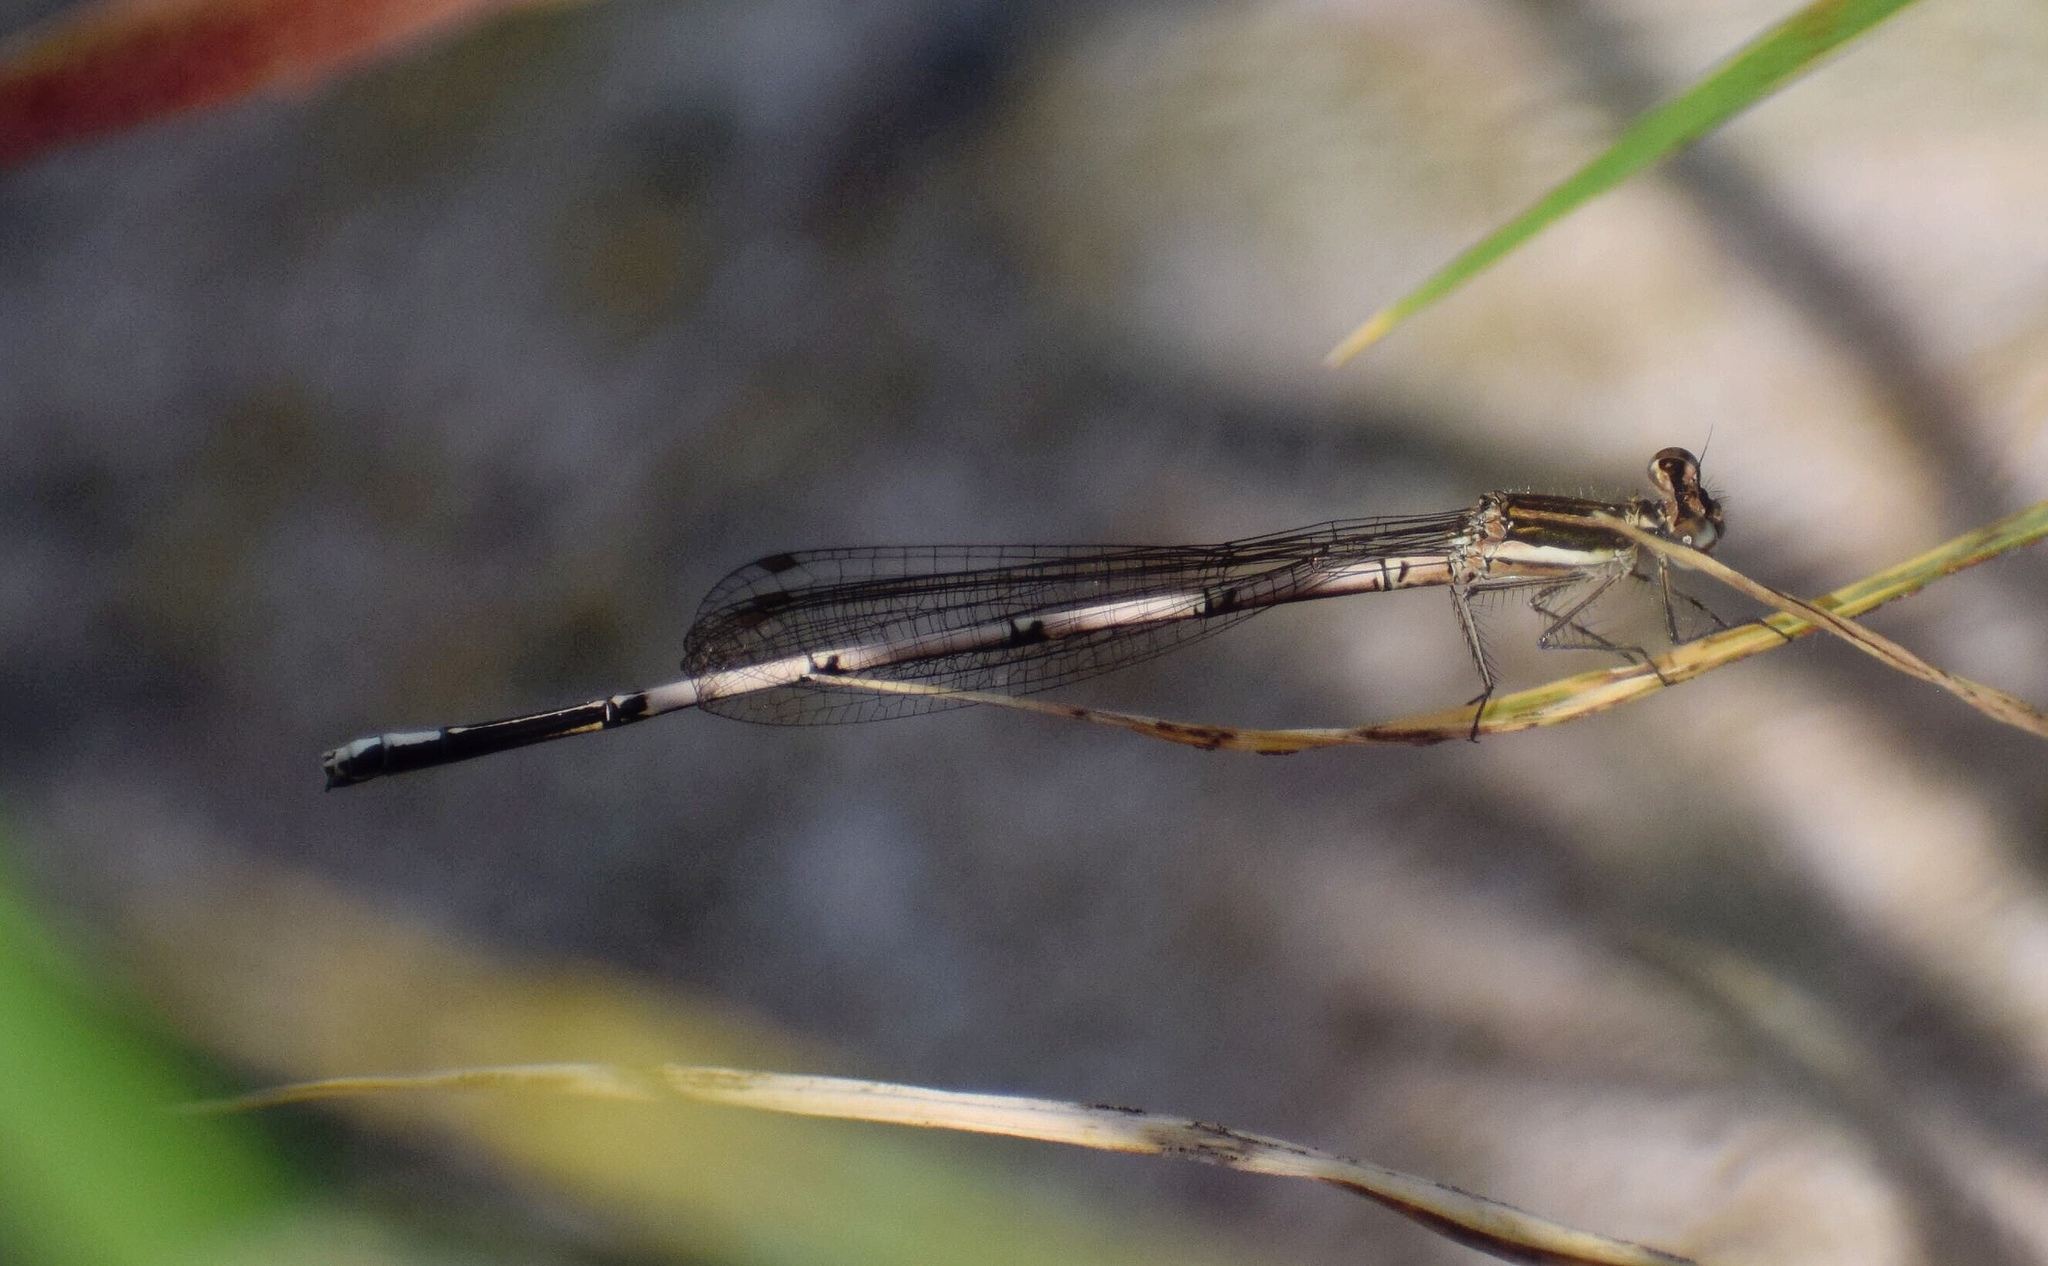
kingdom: Animalia
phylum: Arthropoda
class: Insecta
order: Odonata
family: Platycnemididae
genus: Elattoneura
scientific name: Elattoneura glauca
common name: Common threadtail
